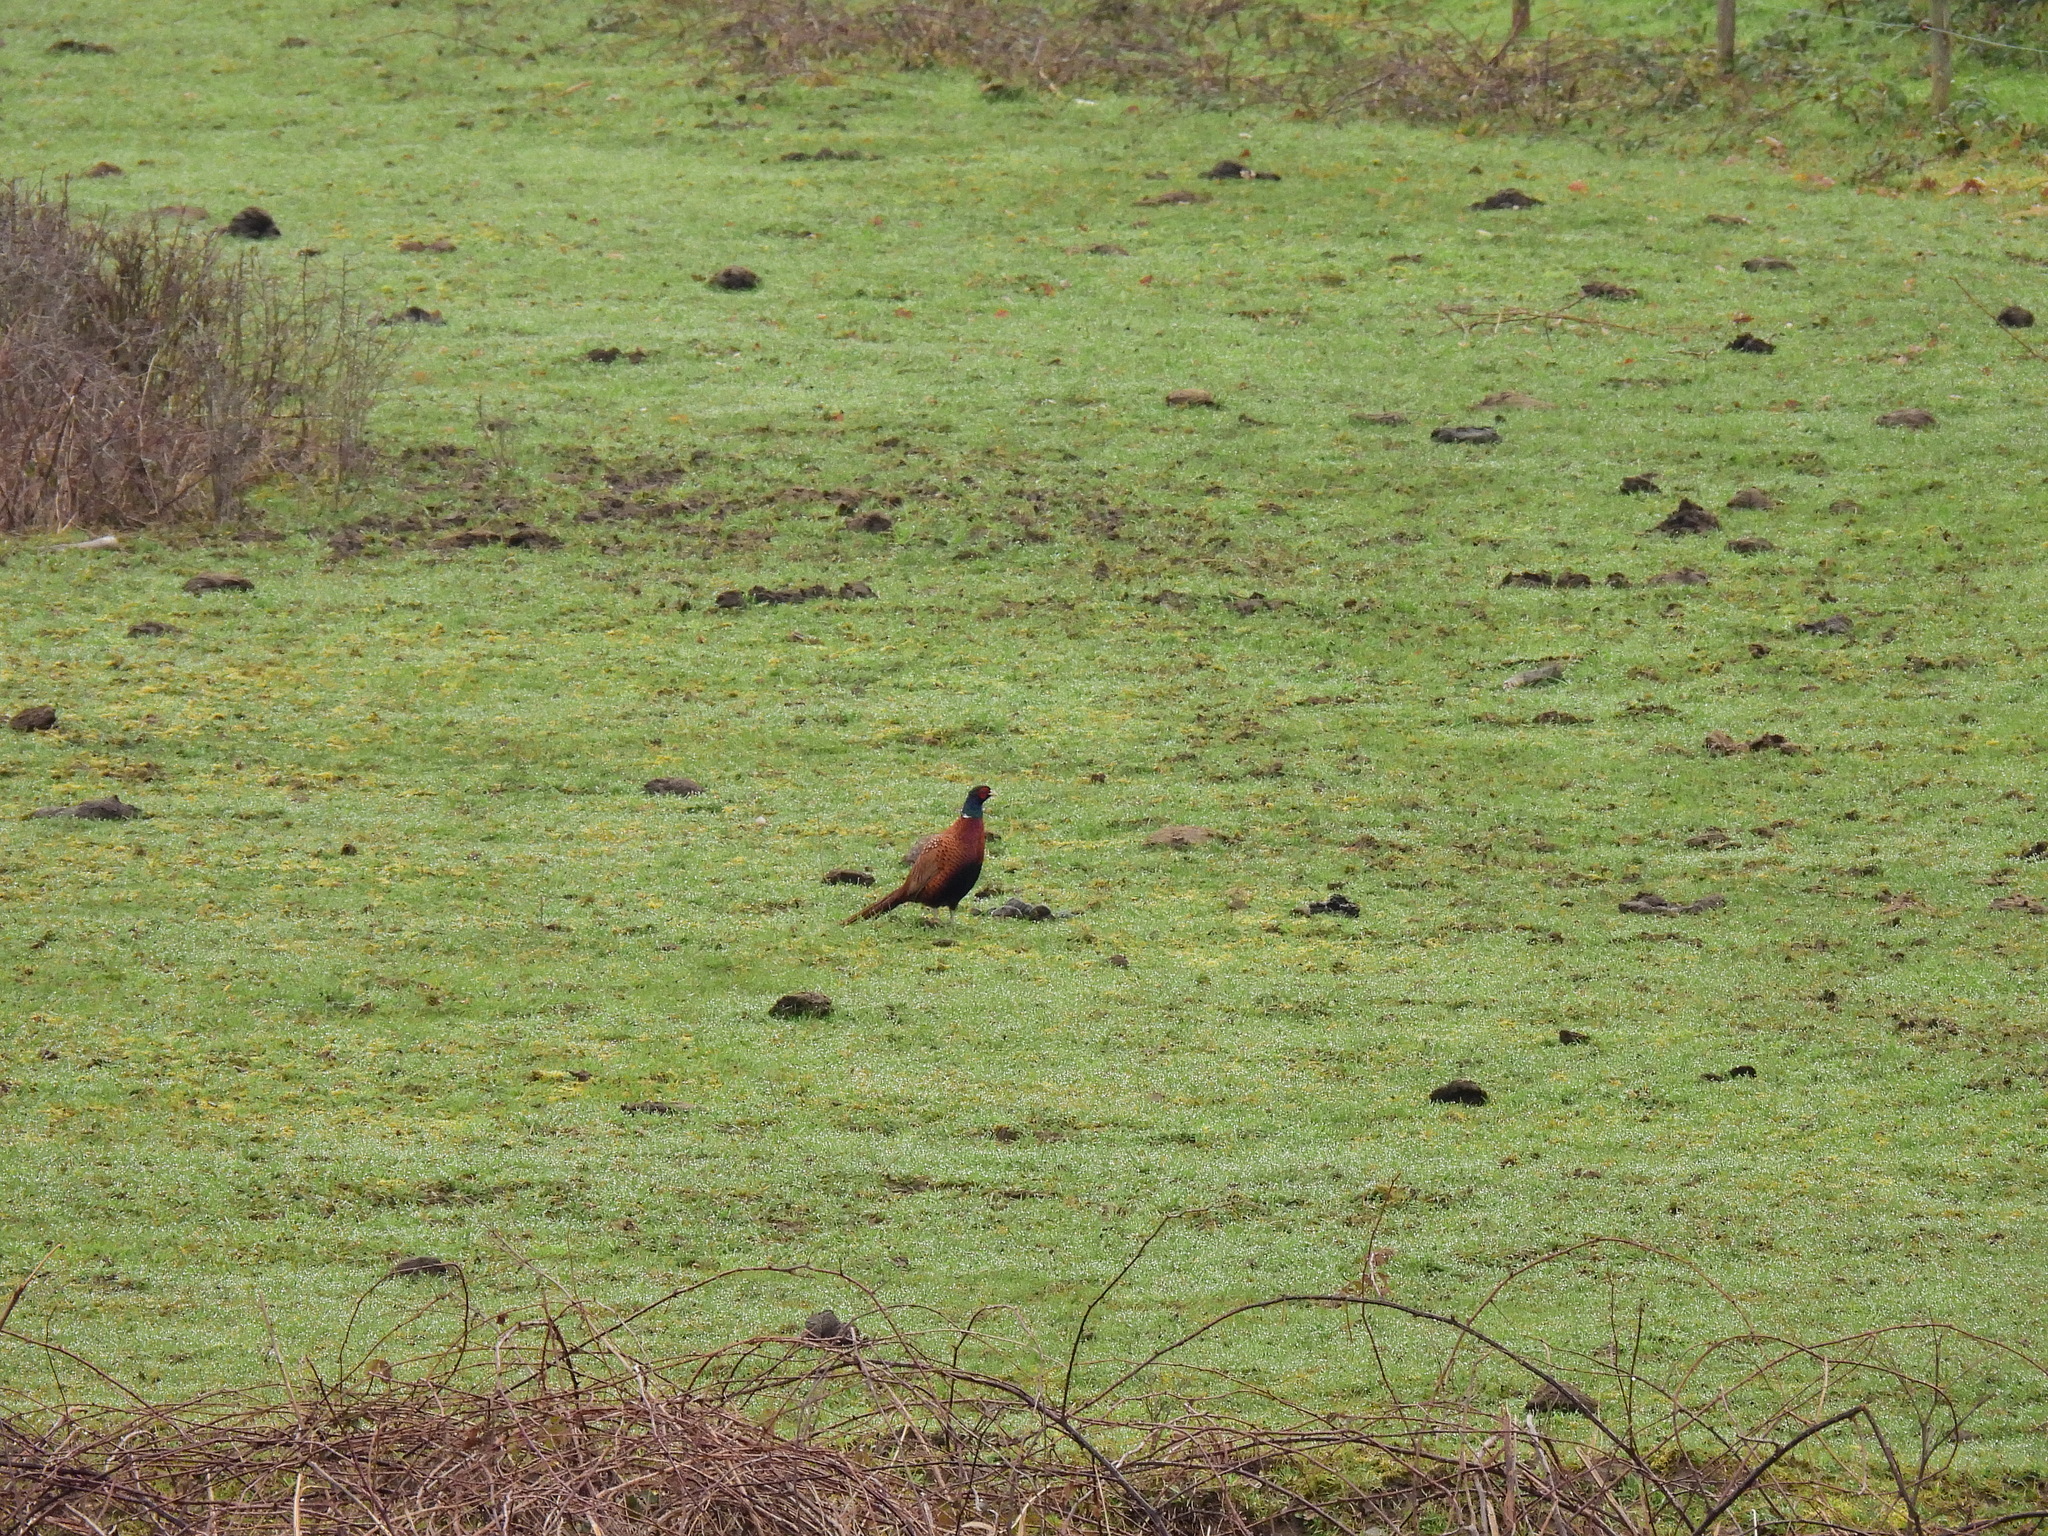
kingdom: Animalia
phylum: Chordata
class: Aves
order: Galliformes
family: Phasianidae
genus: Phasianus
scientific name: Phasianus colchicus
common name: Common pheasant
